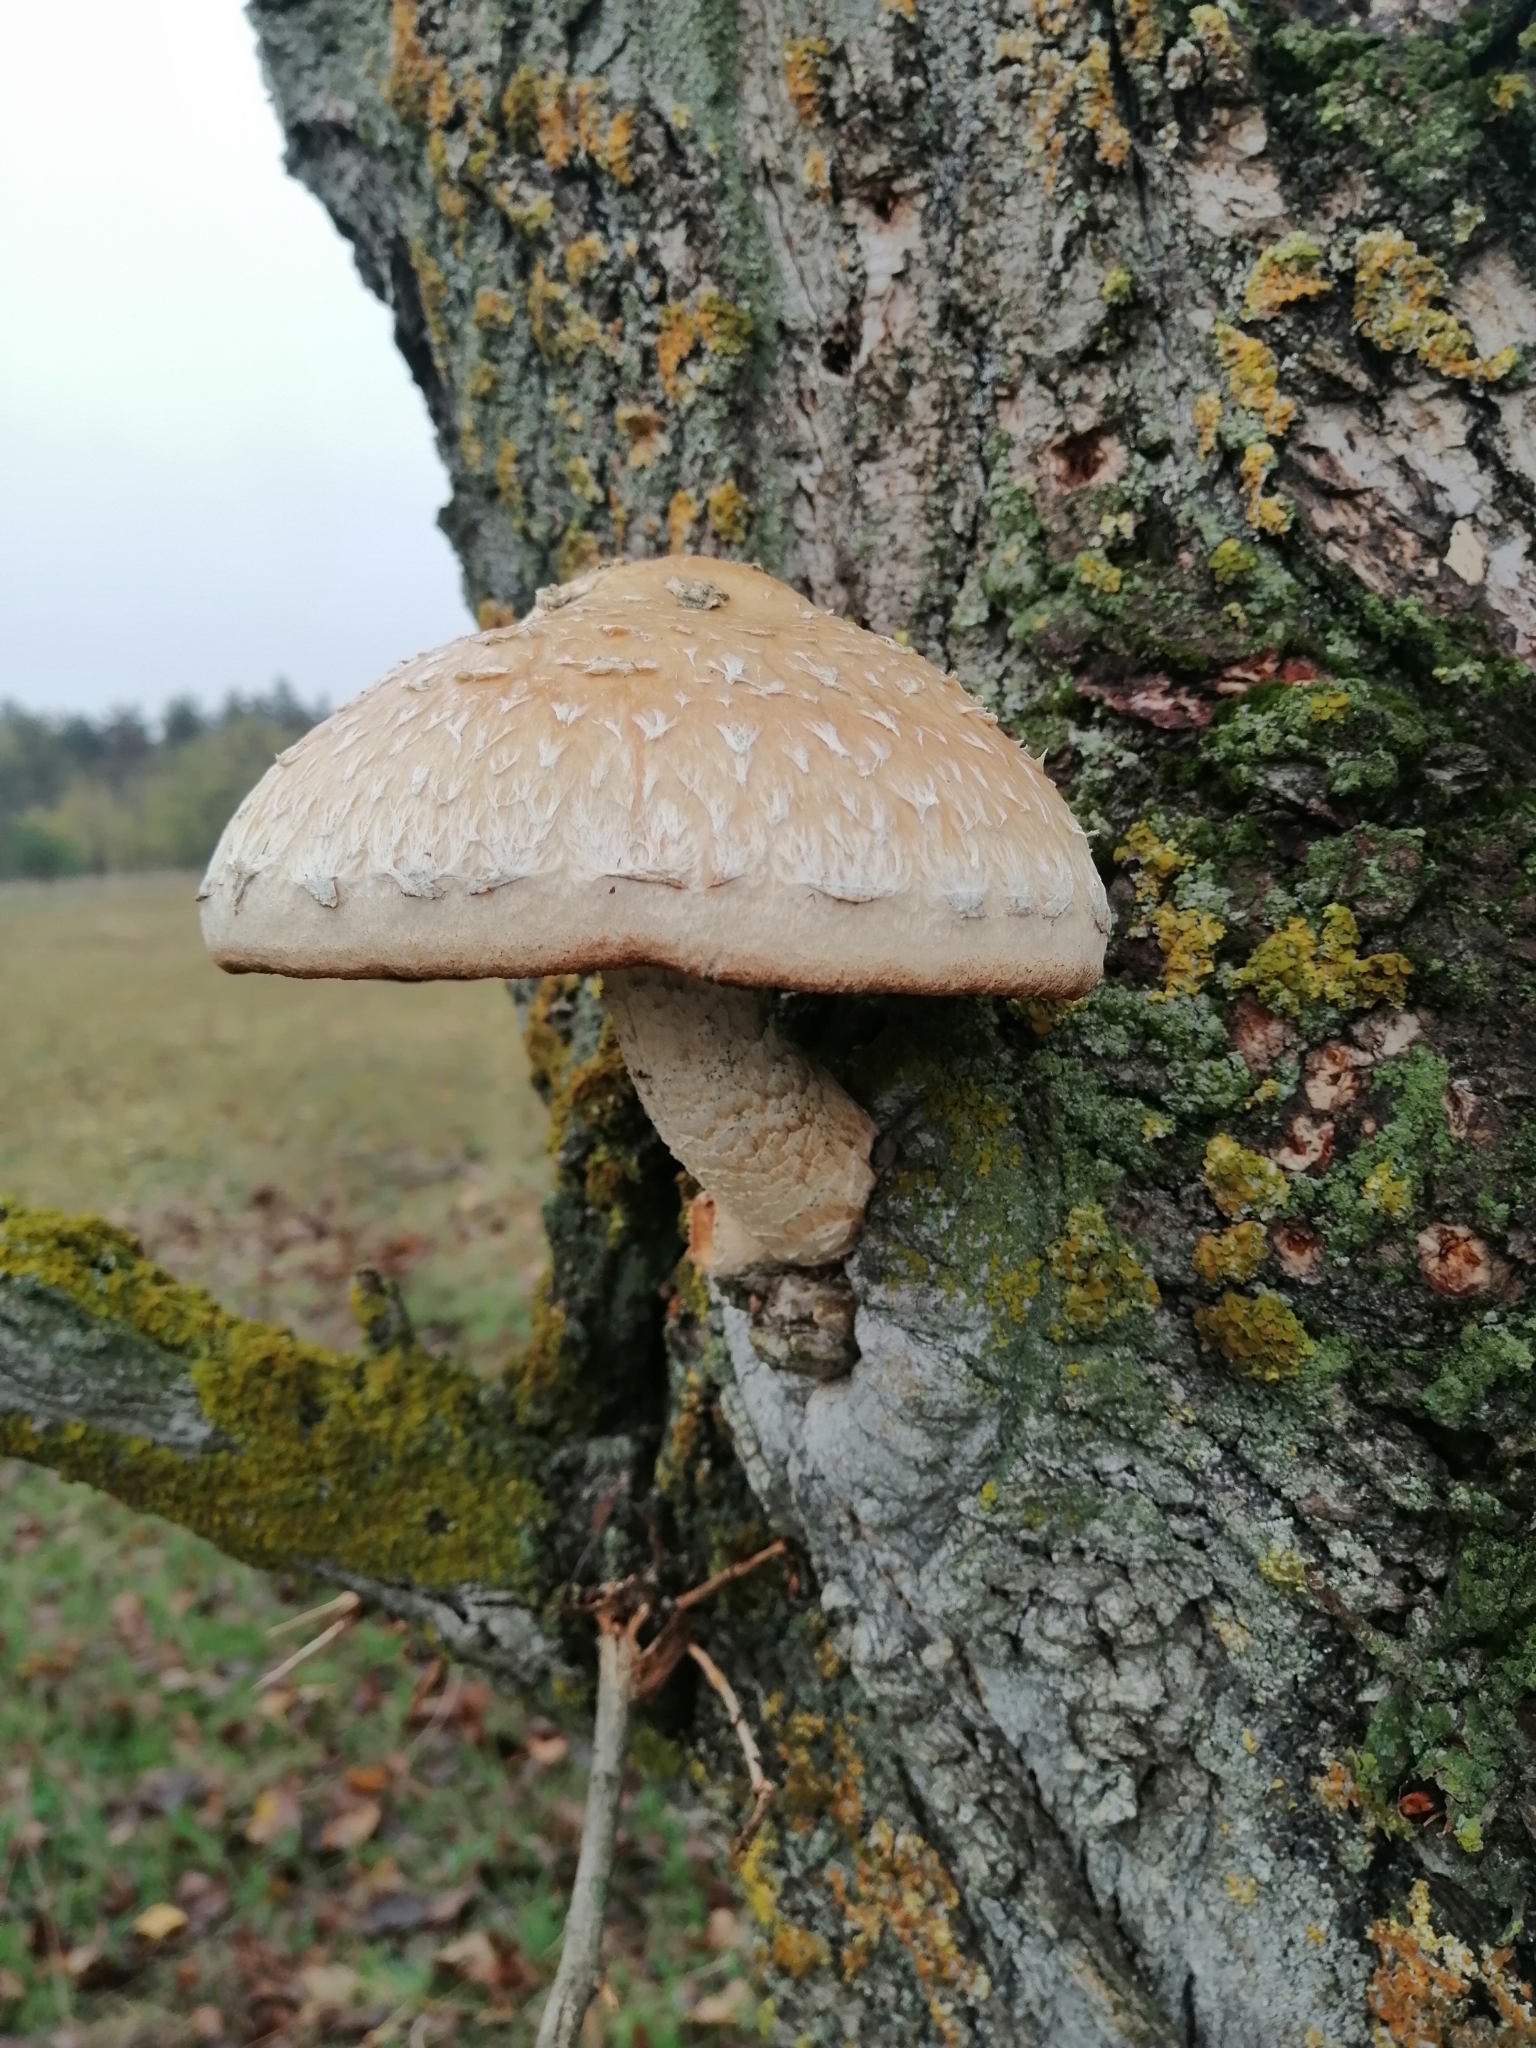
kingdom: Fungi
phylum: Basidiomycota
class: Agaricomycetes
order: Agaricales
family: Strophariaceae
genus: Pholiota
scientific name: Pholiota populnea
